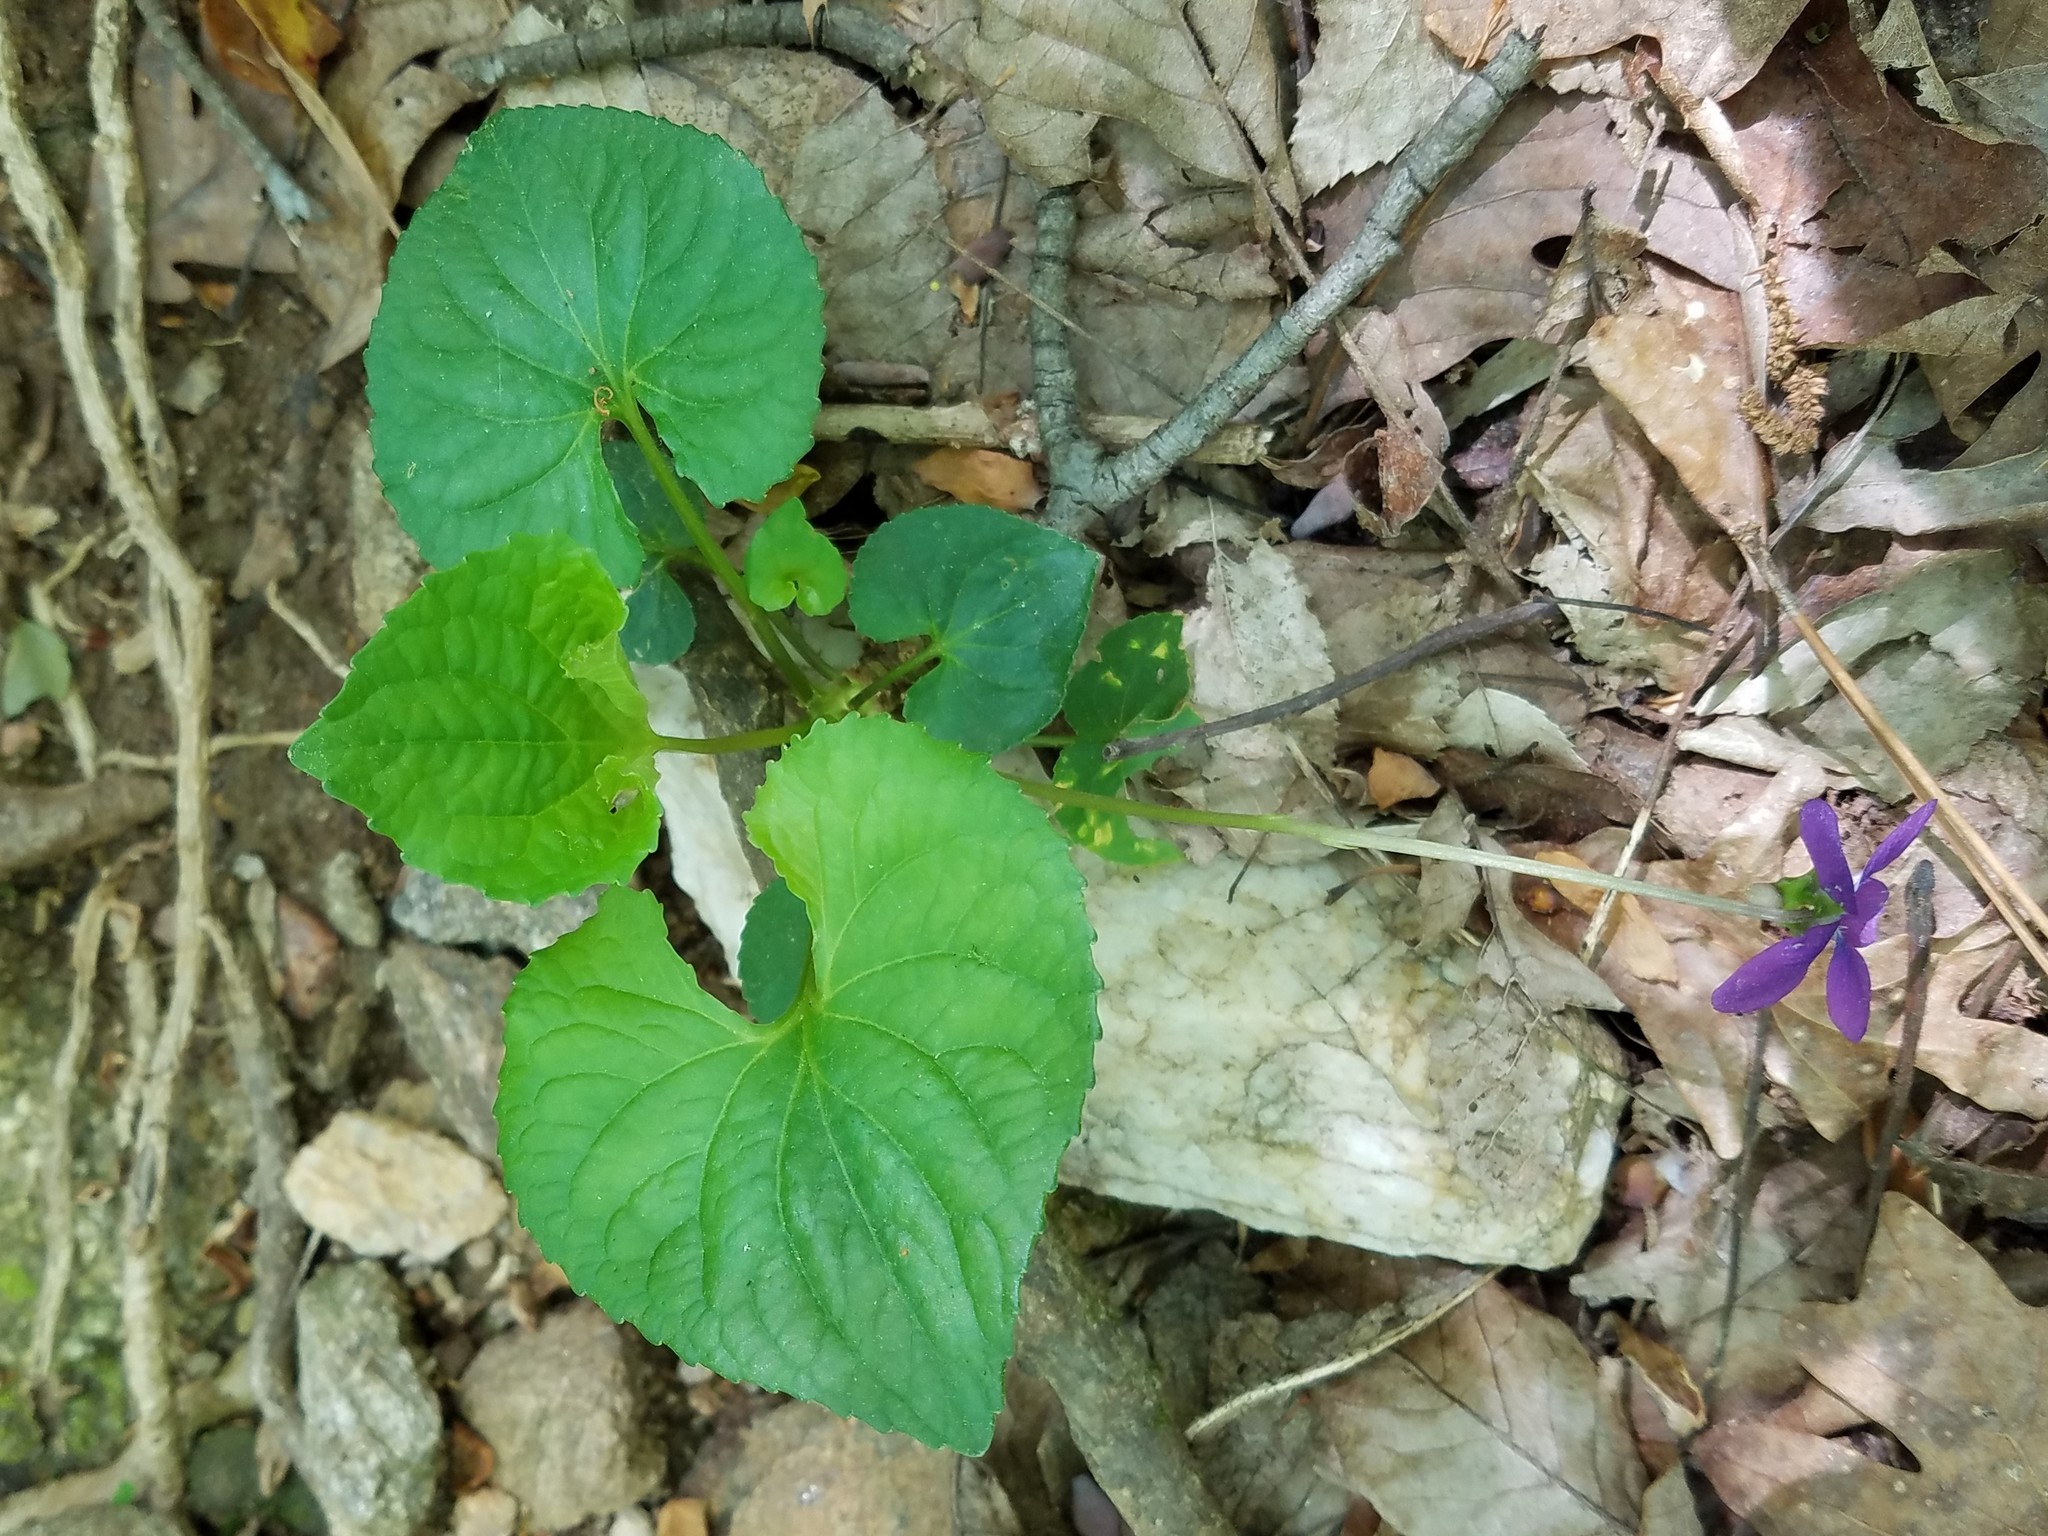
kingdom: Plantae
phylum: Tracheophyta
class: Magnoliopsida
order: Malpighiales
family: Violaceae
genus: Viola
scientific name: Viola sororia
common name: Dooryard violet
